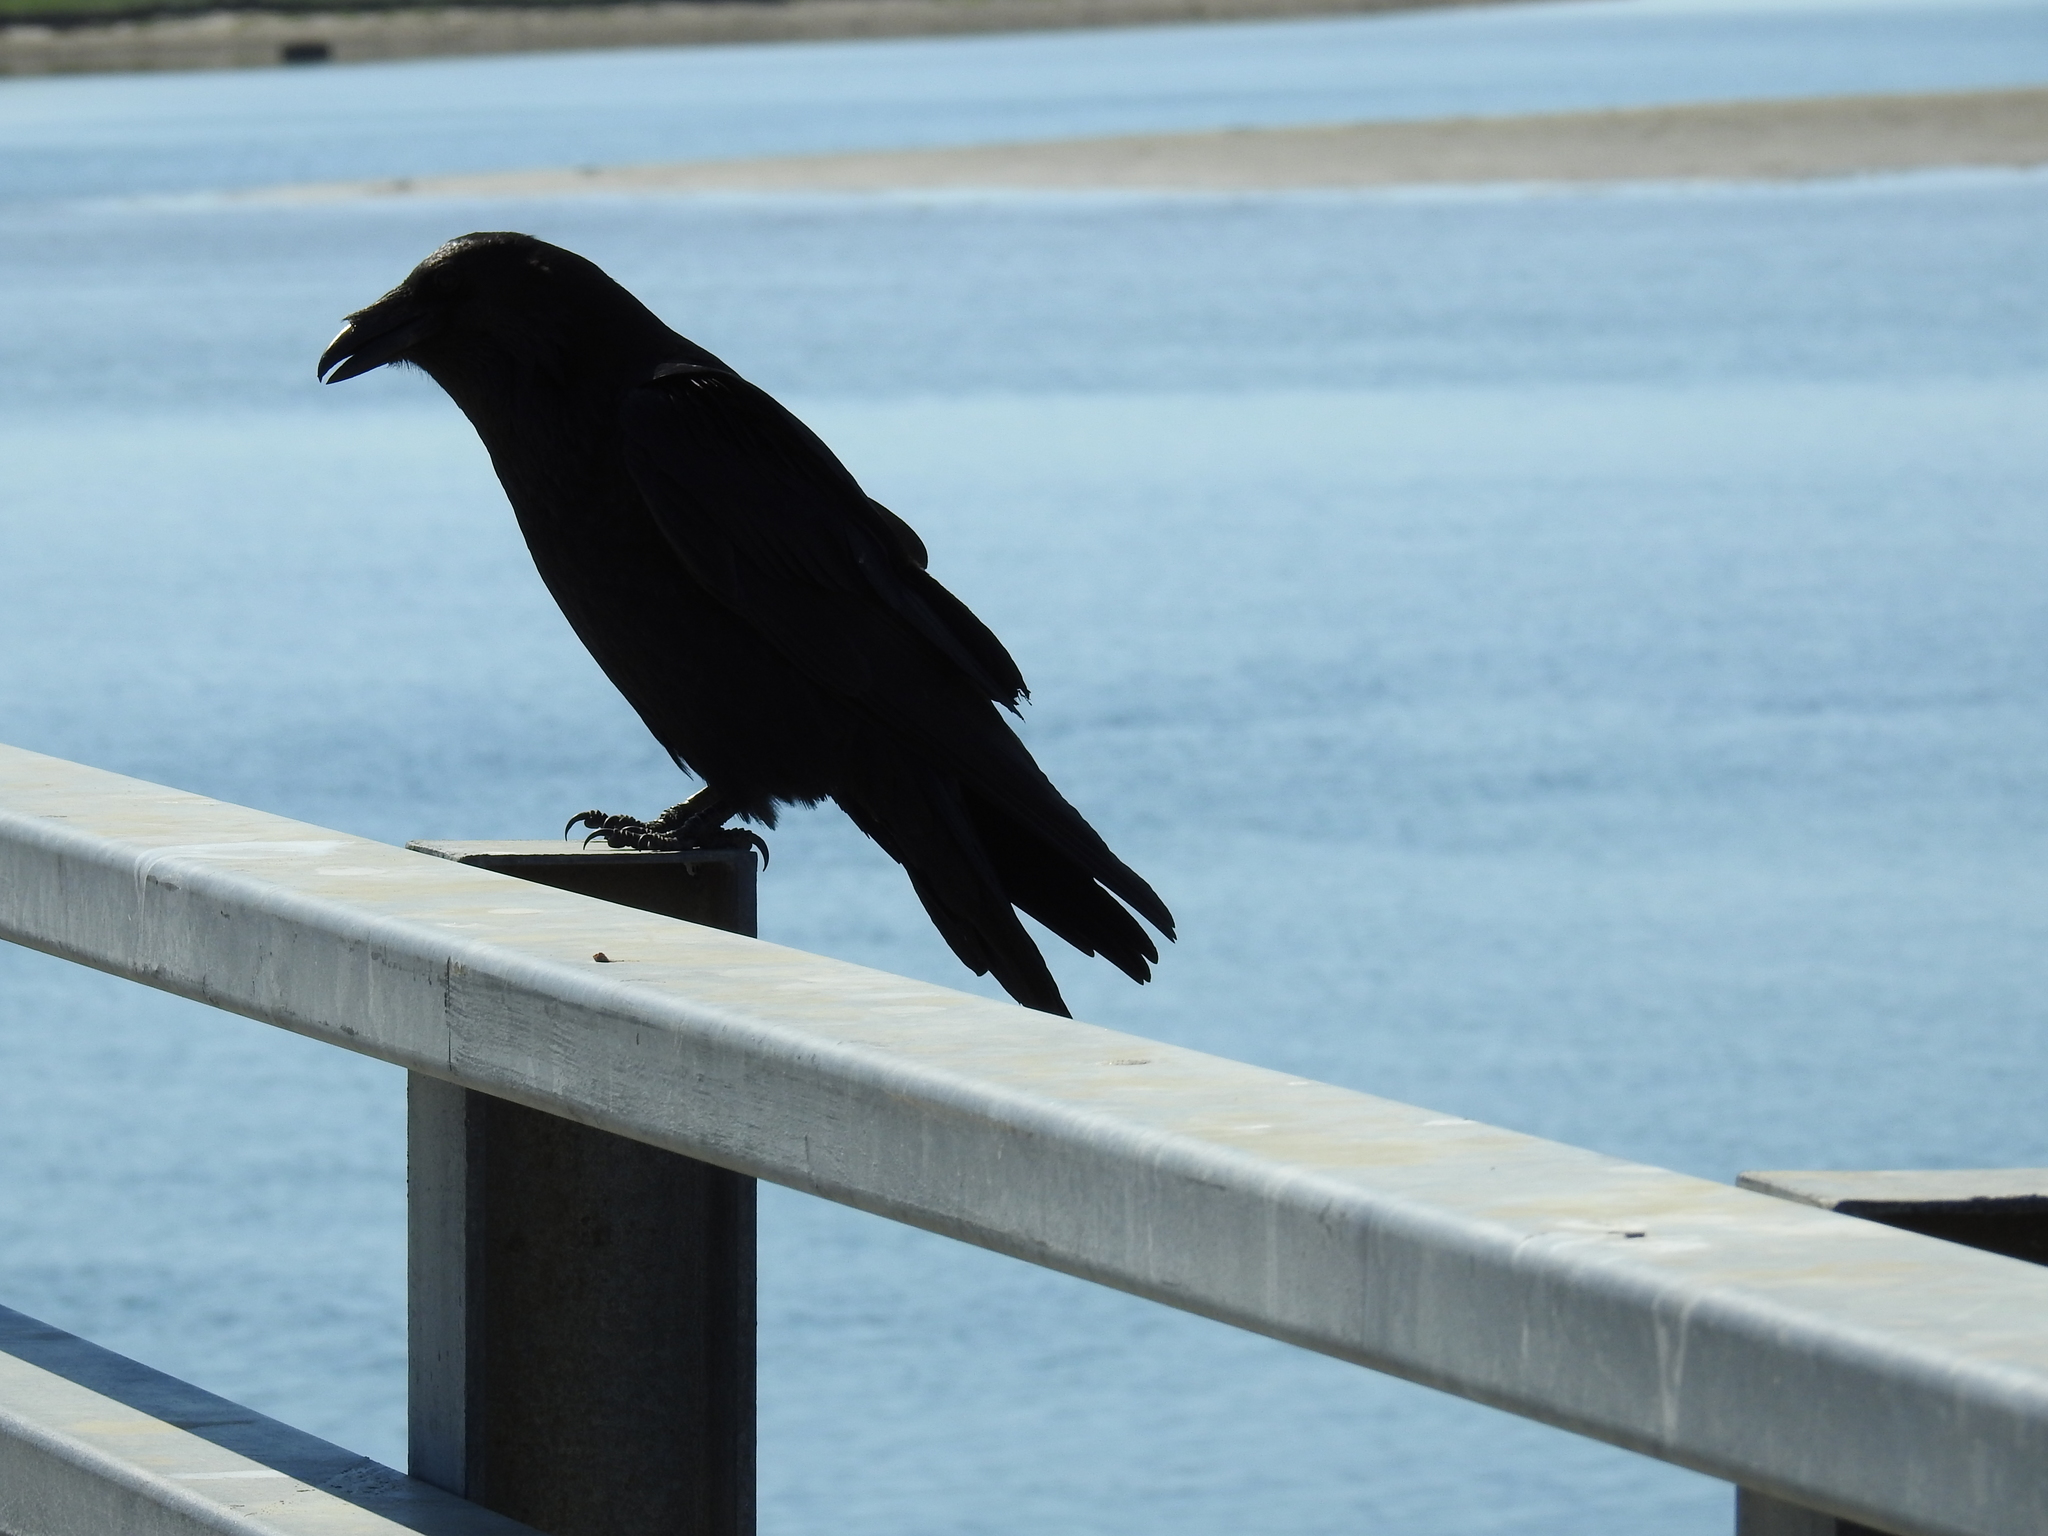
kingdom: Animalia
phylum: Chordata
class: Aves
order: Passeriformes
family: Corvidae
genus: Corvus
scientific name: Corvus corax
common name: Common raven
